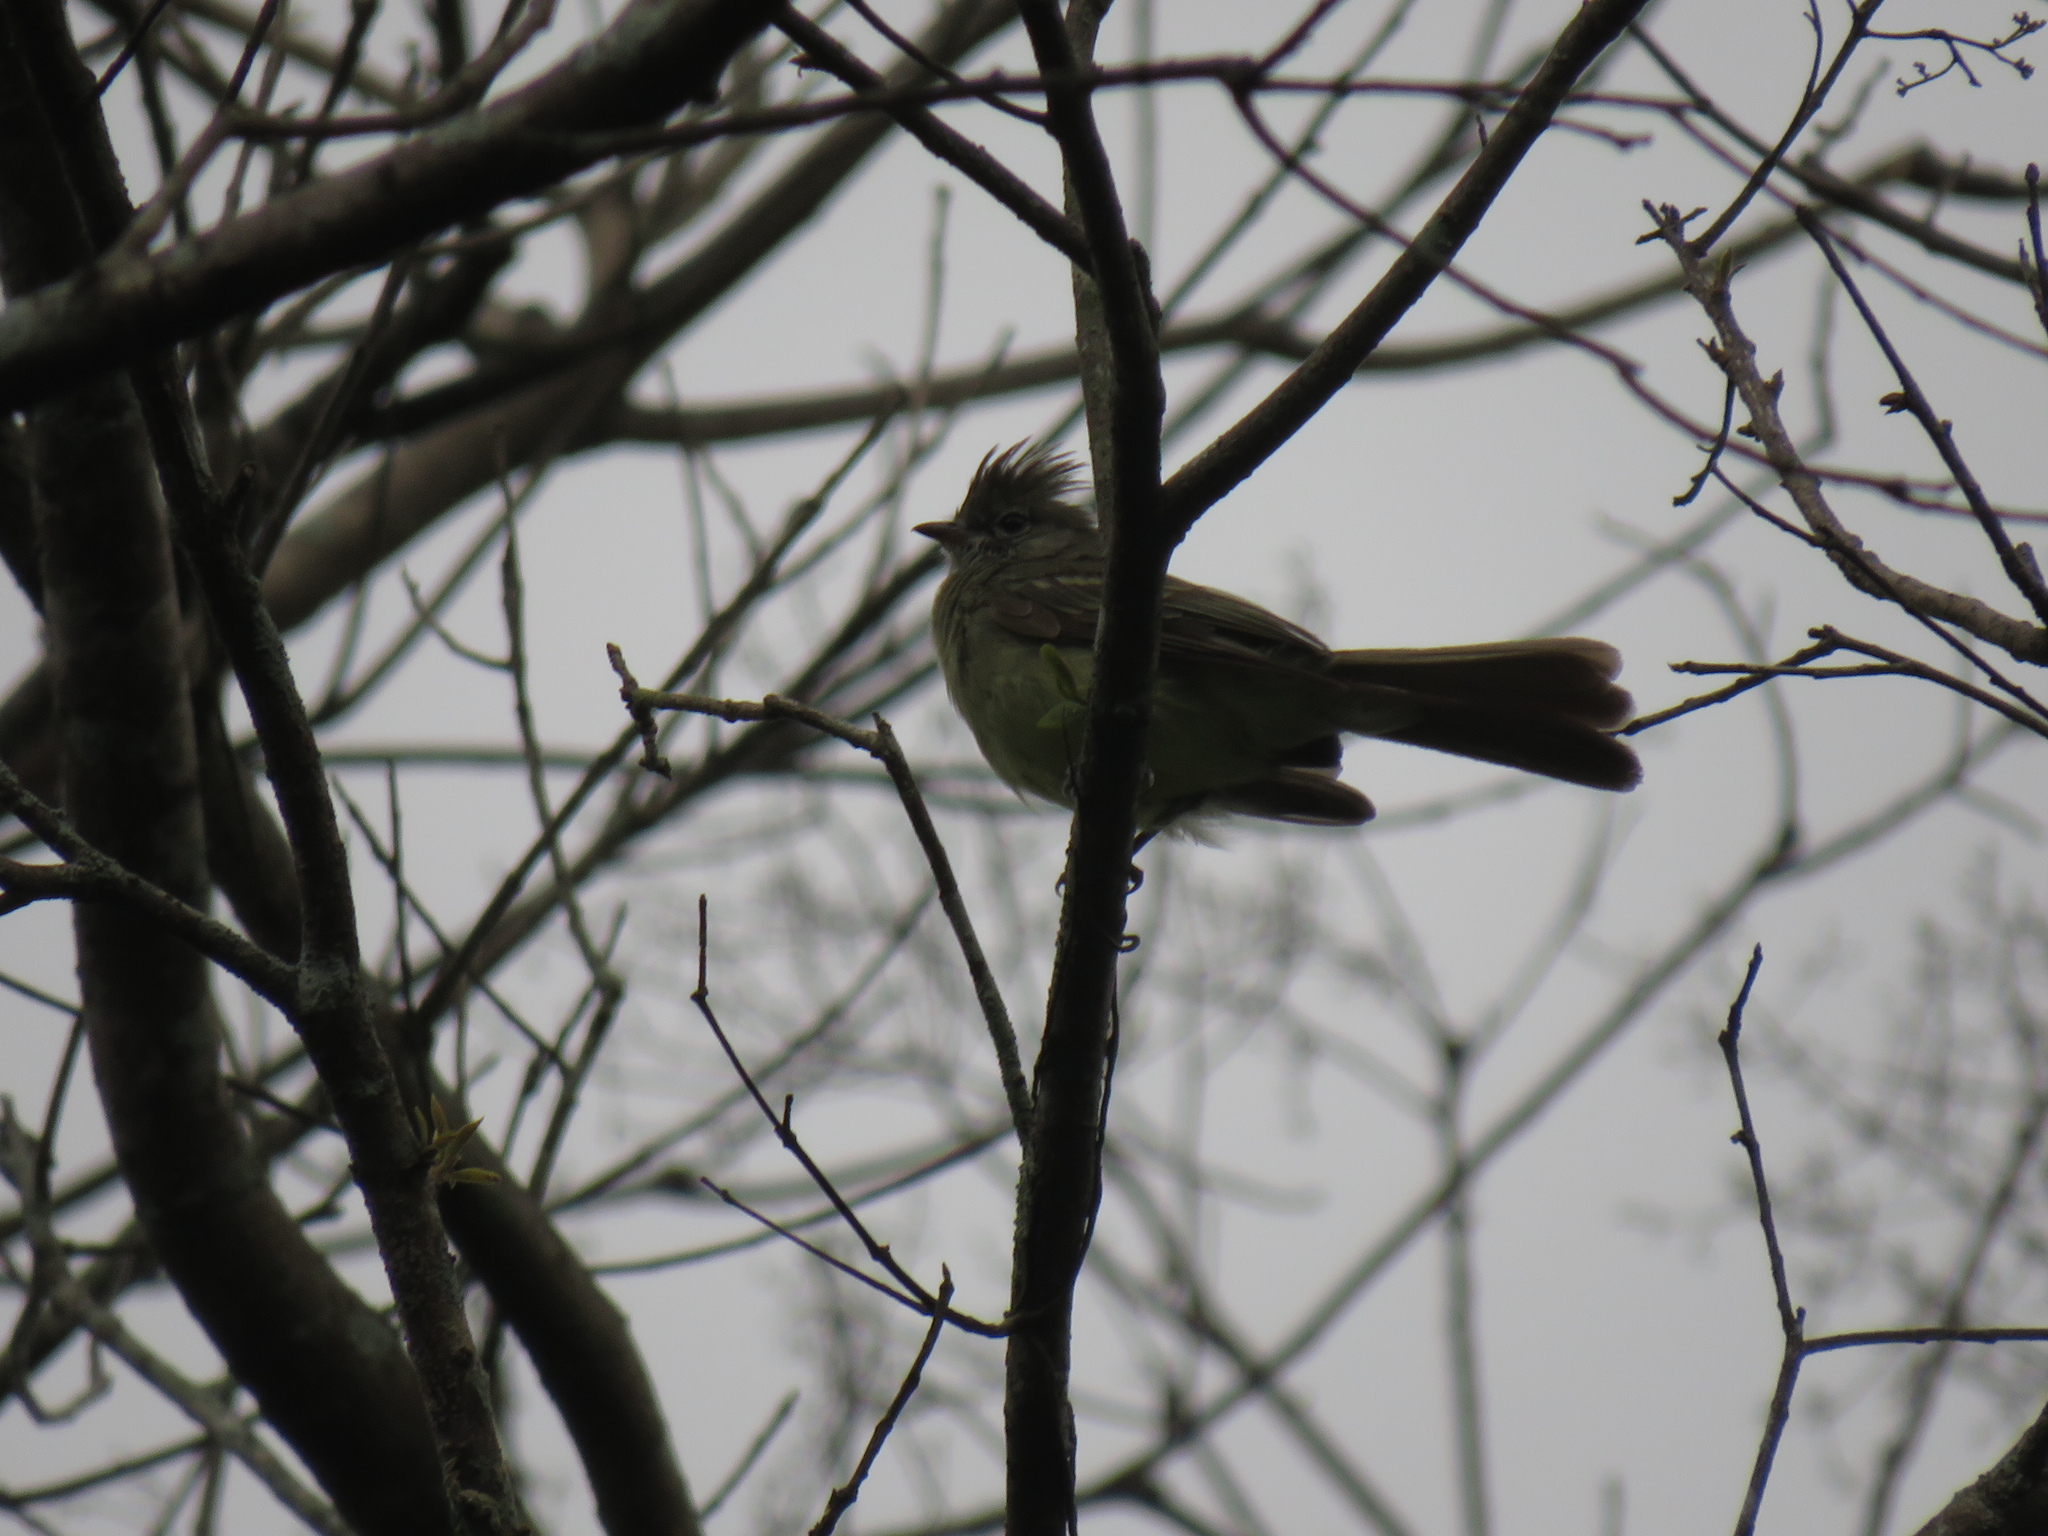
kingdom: Animalia
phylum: Chordata
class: Aves
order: Passeriformes
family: Tyrannidae
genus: Elaenia
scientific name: Elaenia flavogaster
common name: Yellow-bellied elaenia
